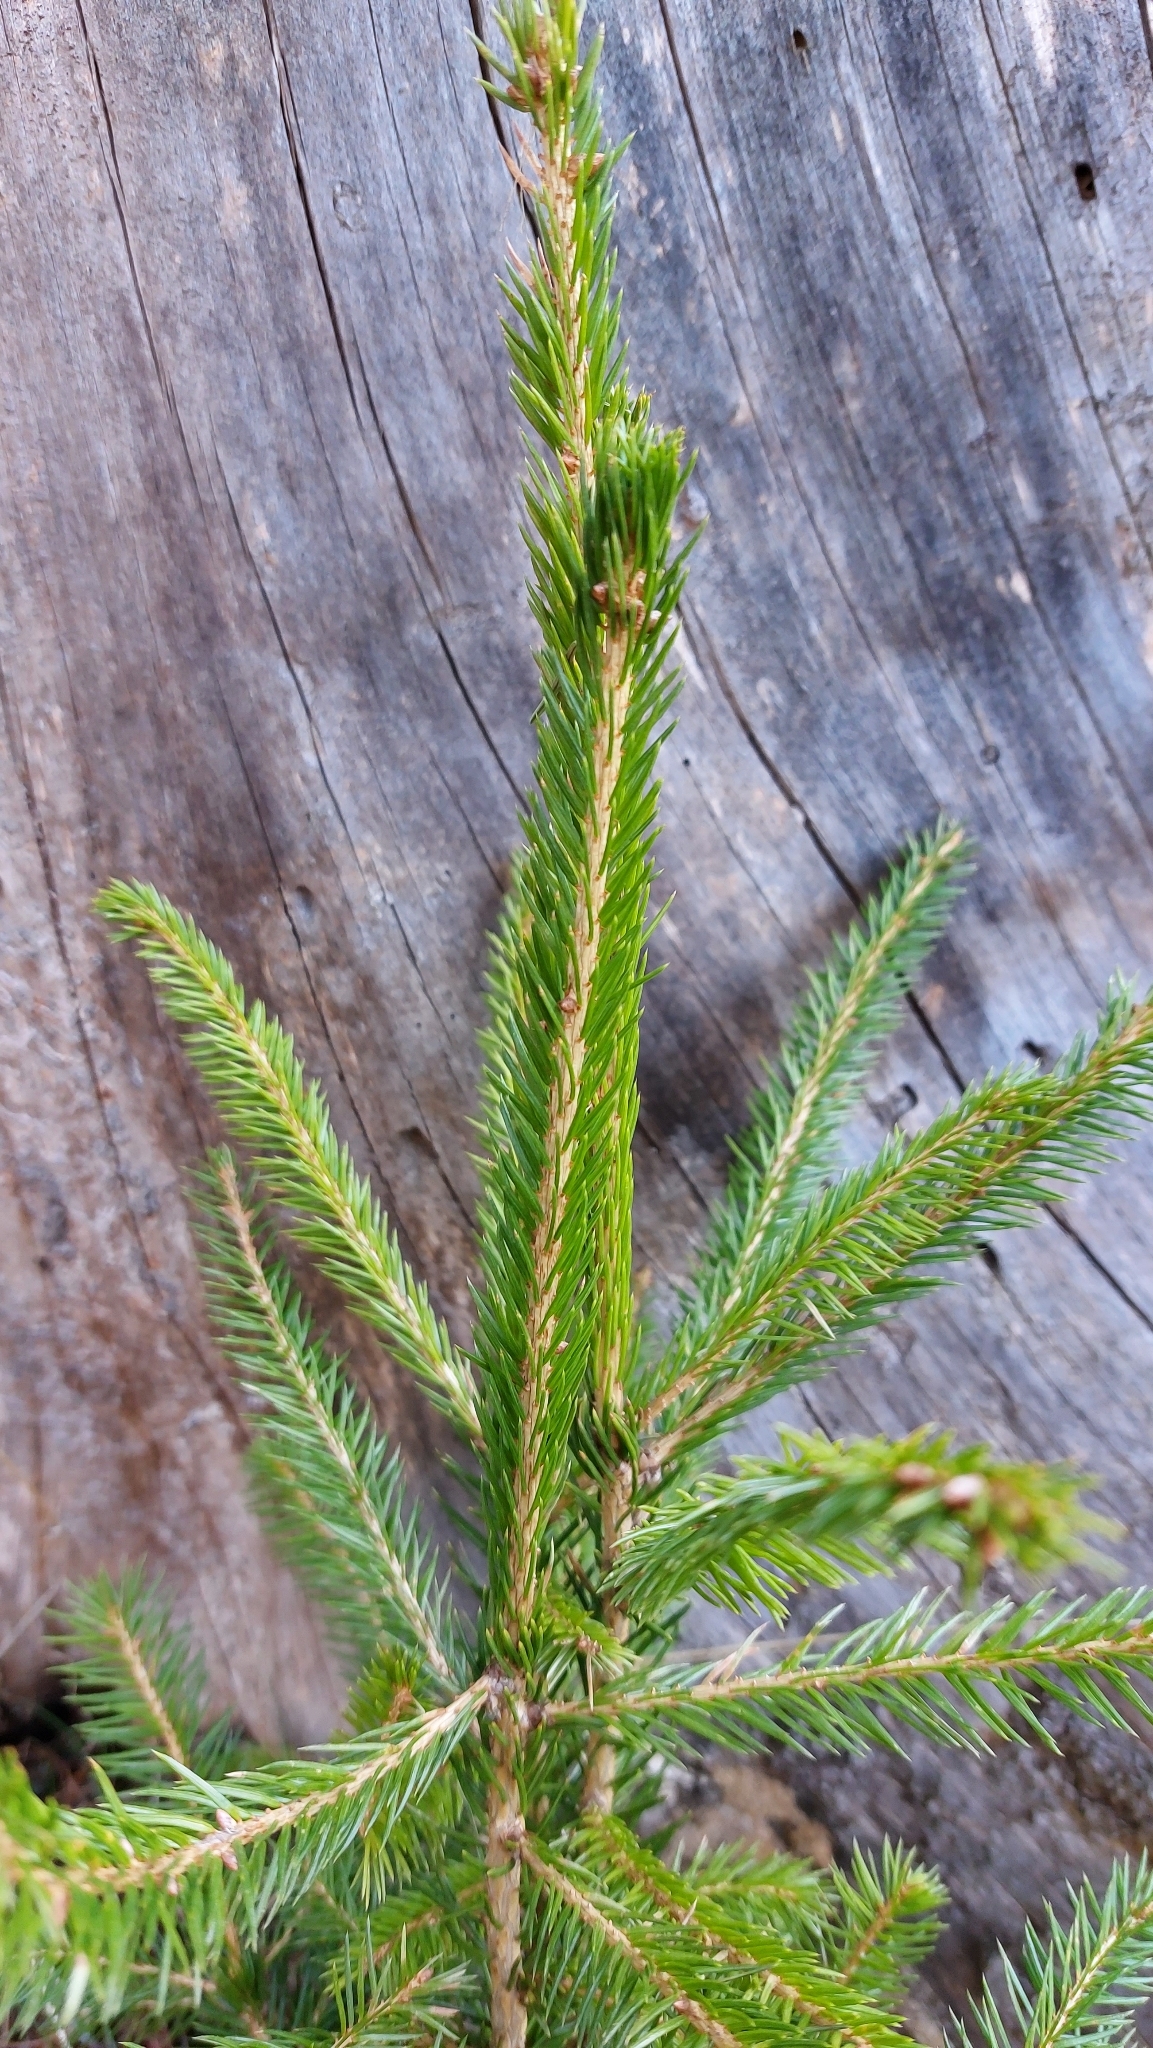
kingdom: Plantae
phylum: Tracheophyta
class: Pinopsida
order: Pinales
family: Pinaceae
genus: Picea
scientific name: Picea abies
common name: Norway spruce
